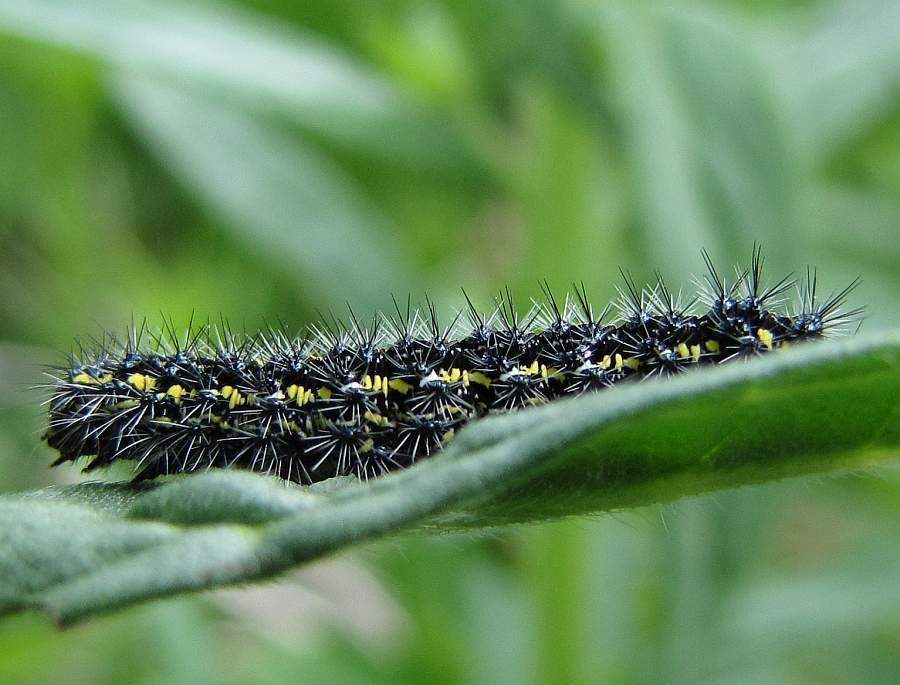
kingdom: Animalia
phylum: Arthropoda
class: Insecta
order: Lepidoptera
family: Erebidae
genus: Haploa
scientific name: Haploa confusa
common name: Confused haploa moth
